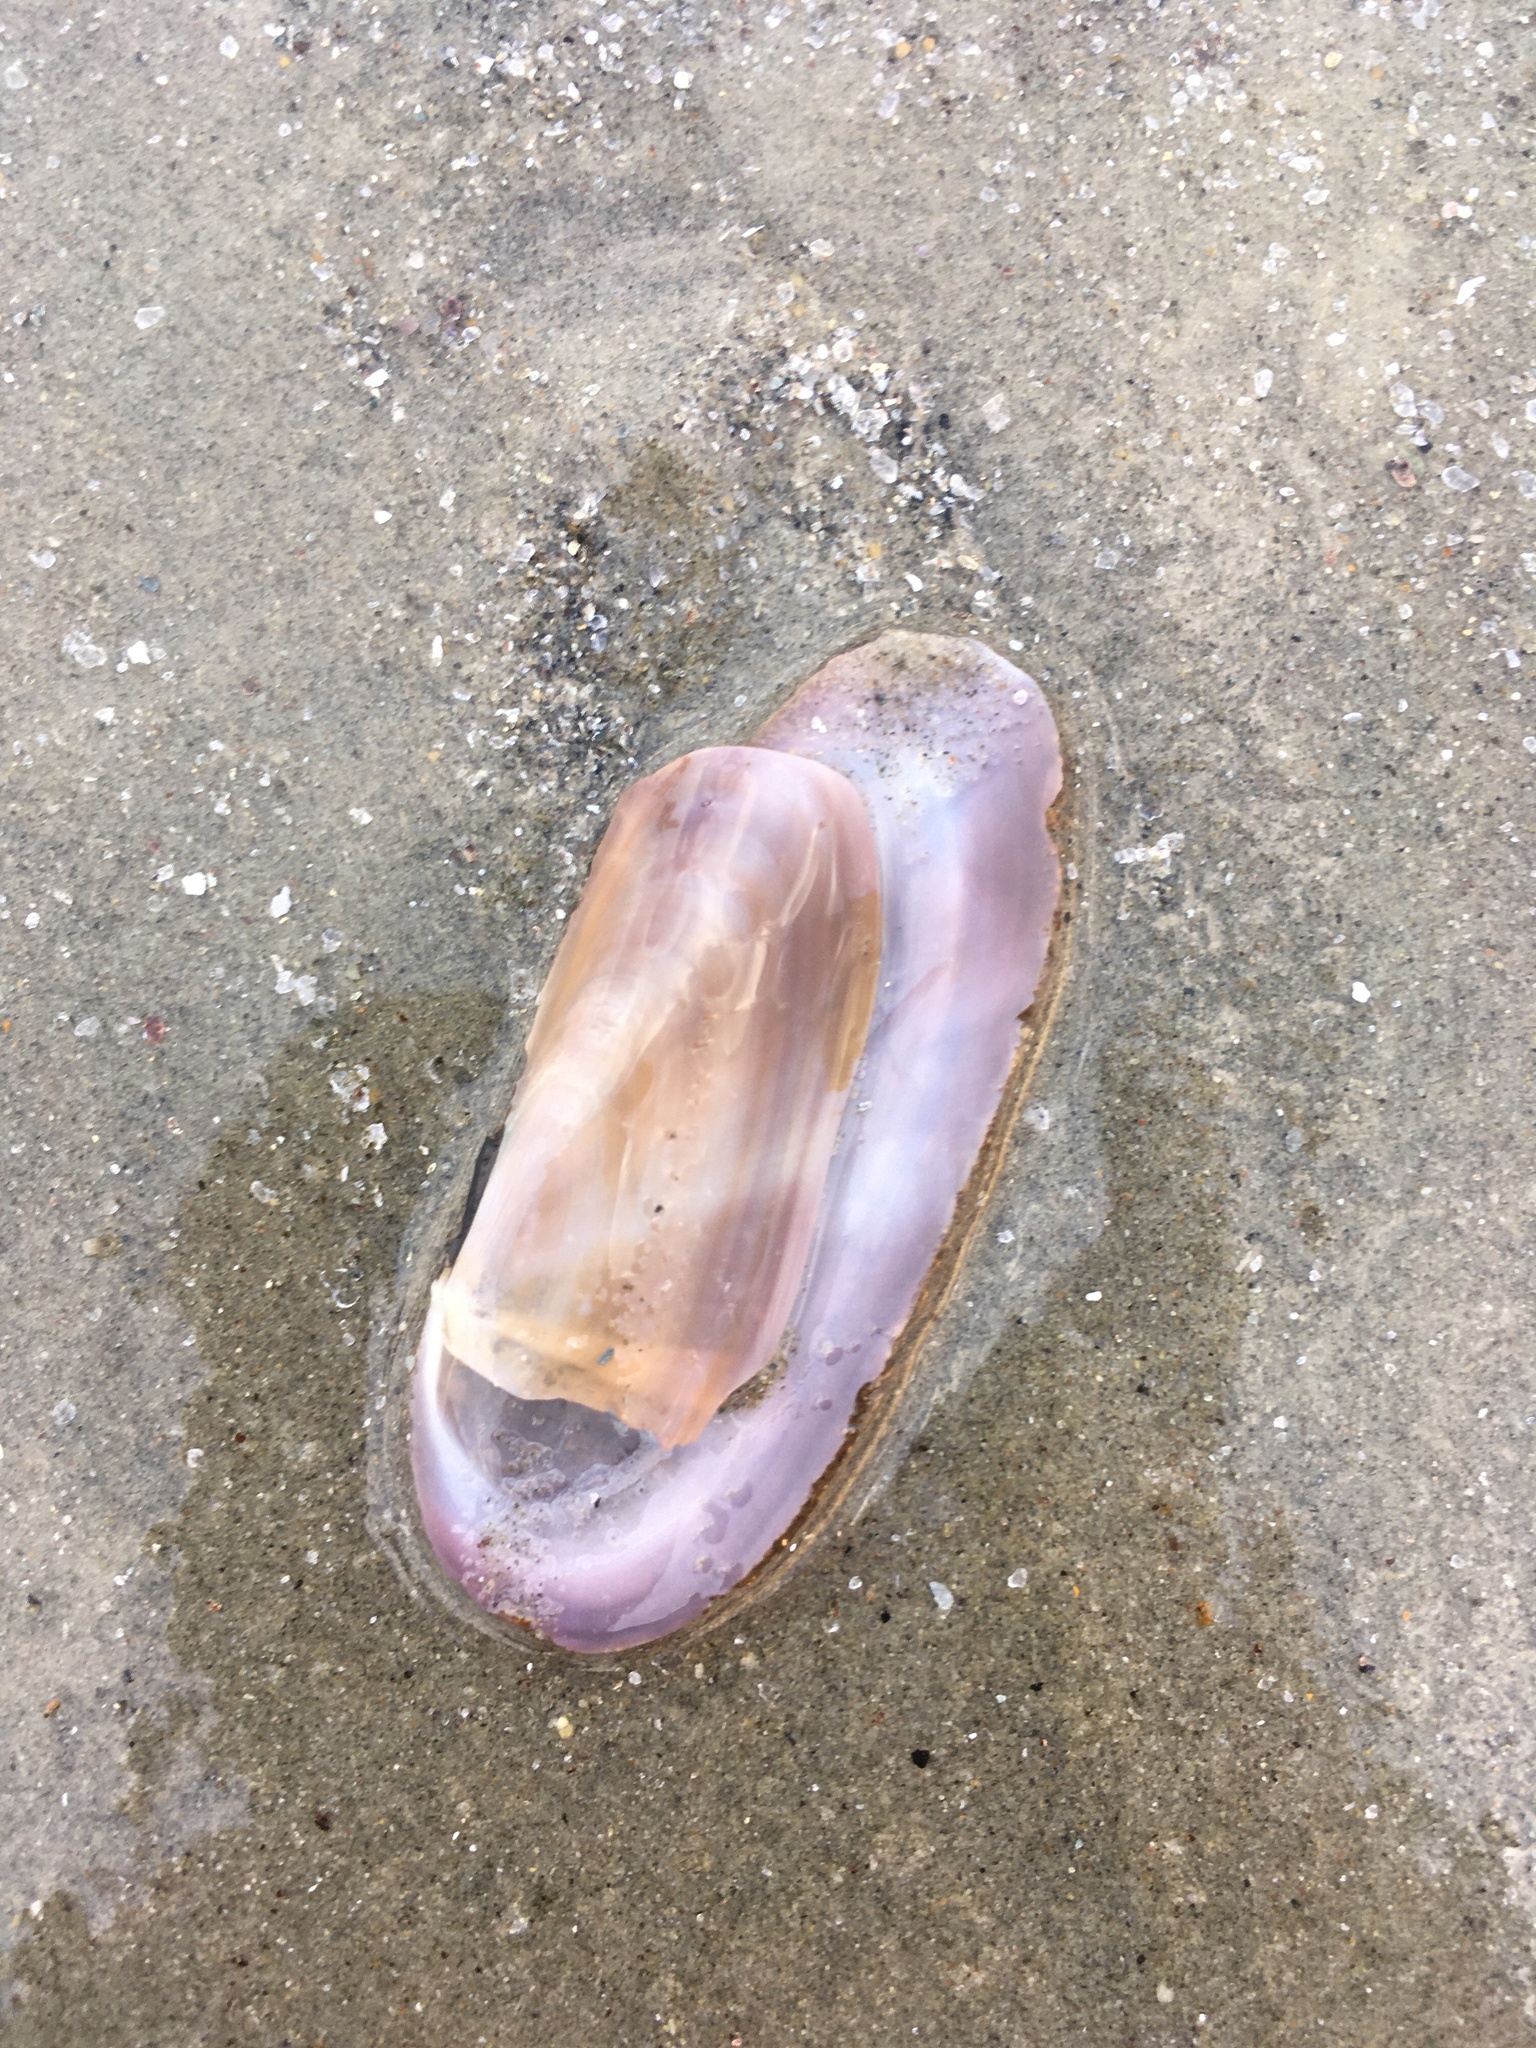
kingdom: Animalia
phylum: Mollusca
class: Bivalvia
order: Adapedonta
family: Pharidae
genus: Siliqua
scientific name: Siliqua costata
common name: Atlantic razor
